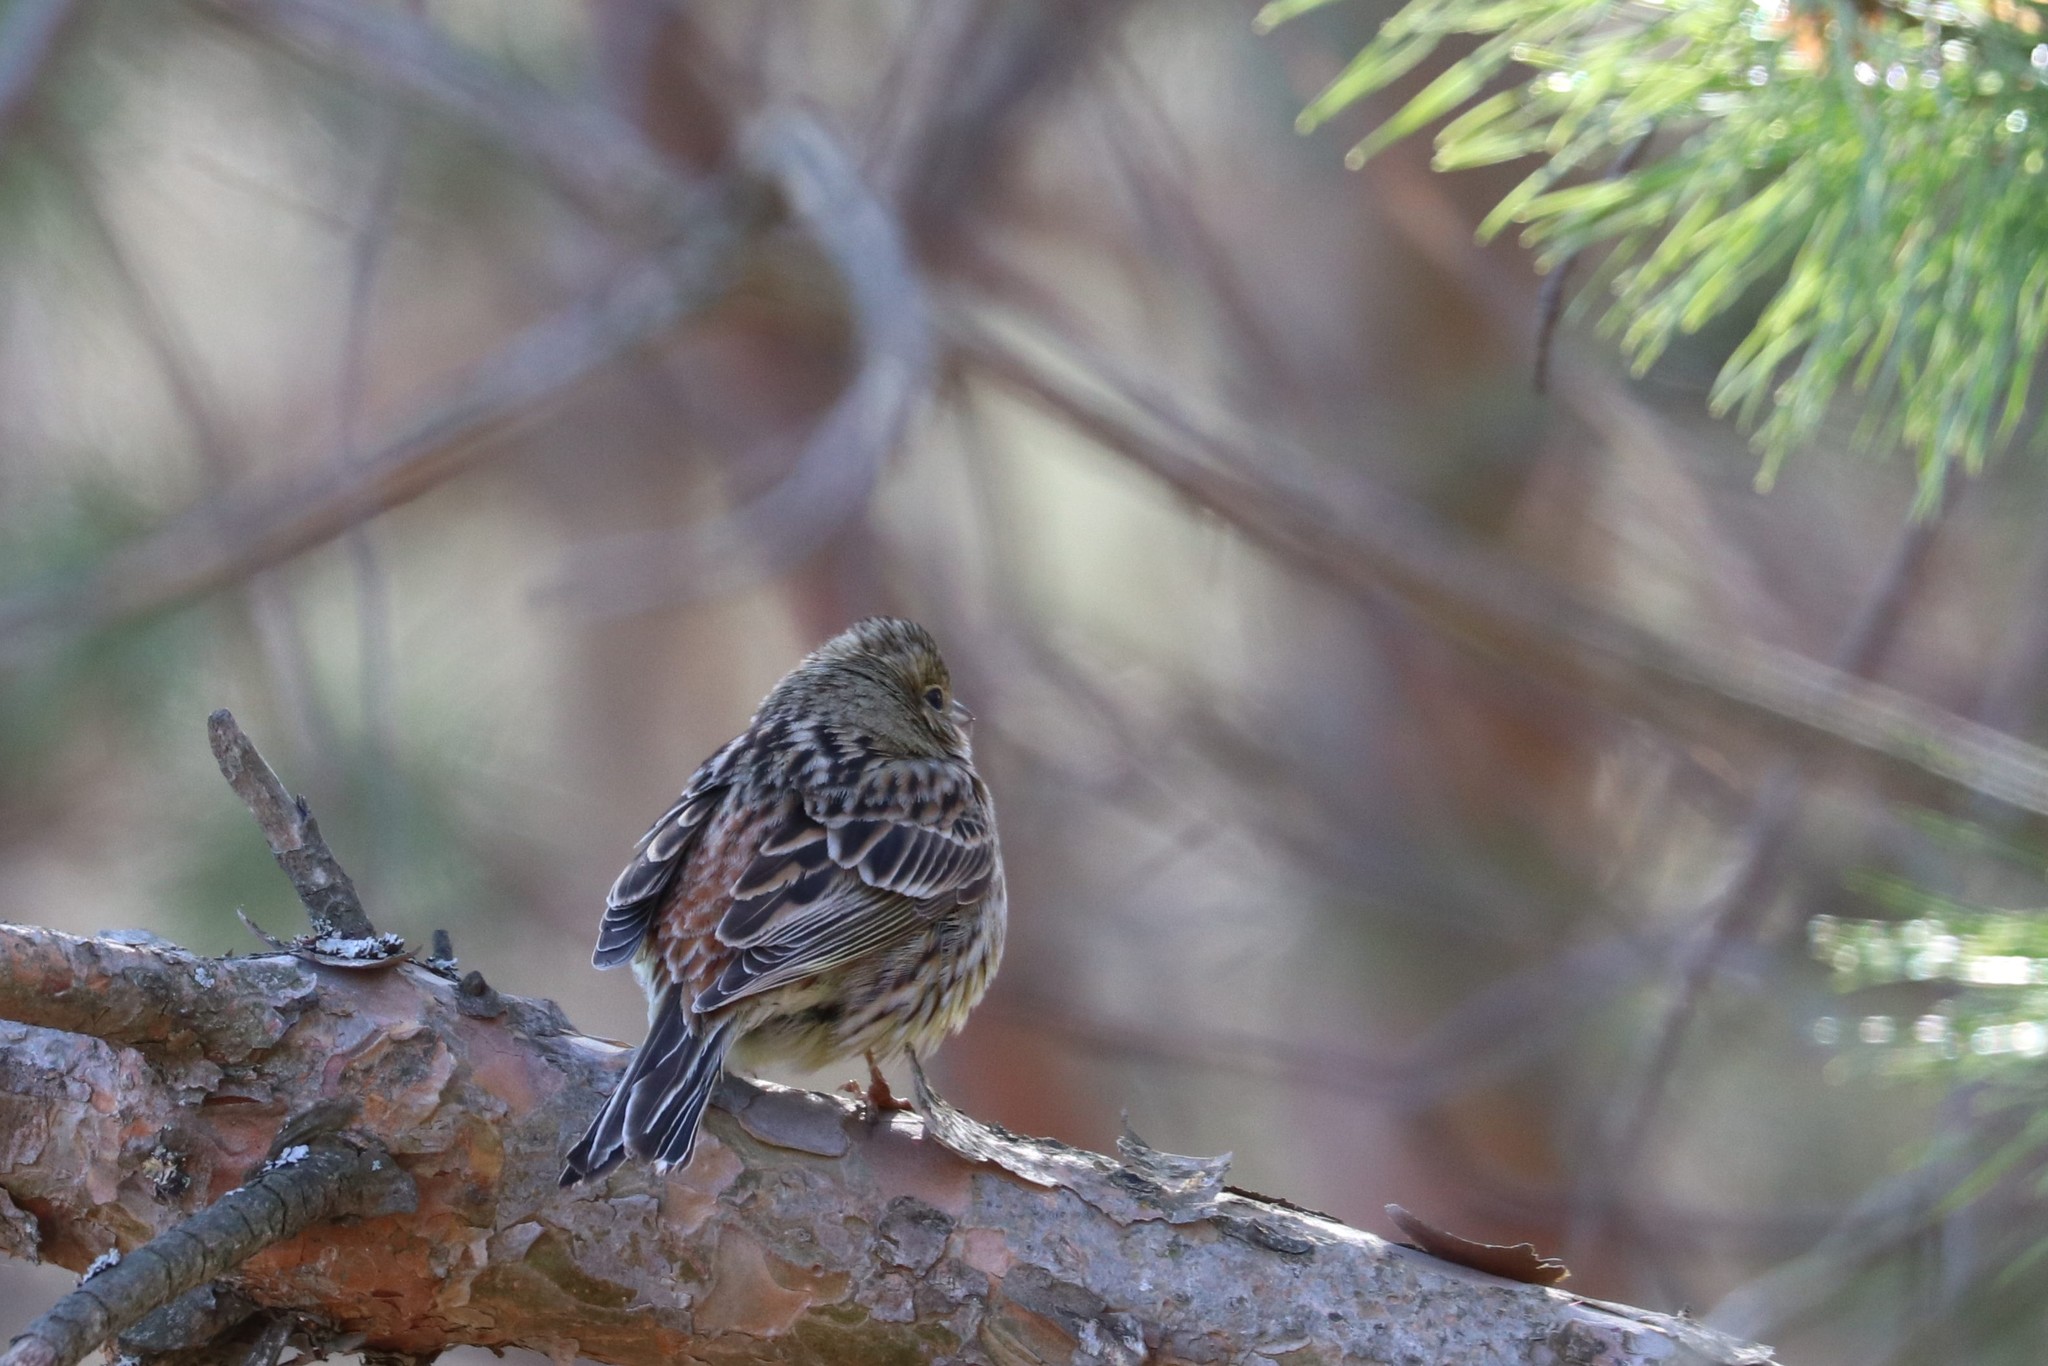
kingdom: Animalia
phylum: Chordata
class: Aves
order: Passeriformes
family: Emberizidae
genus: Emberiza
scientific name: Emberiza citrinella
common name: Yellowhammer
